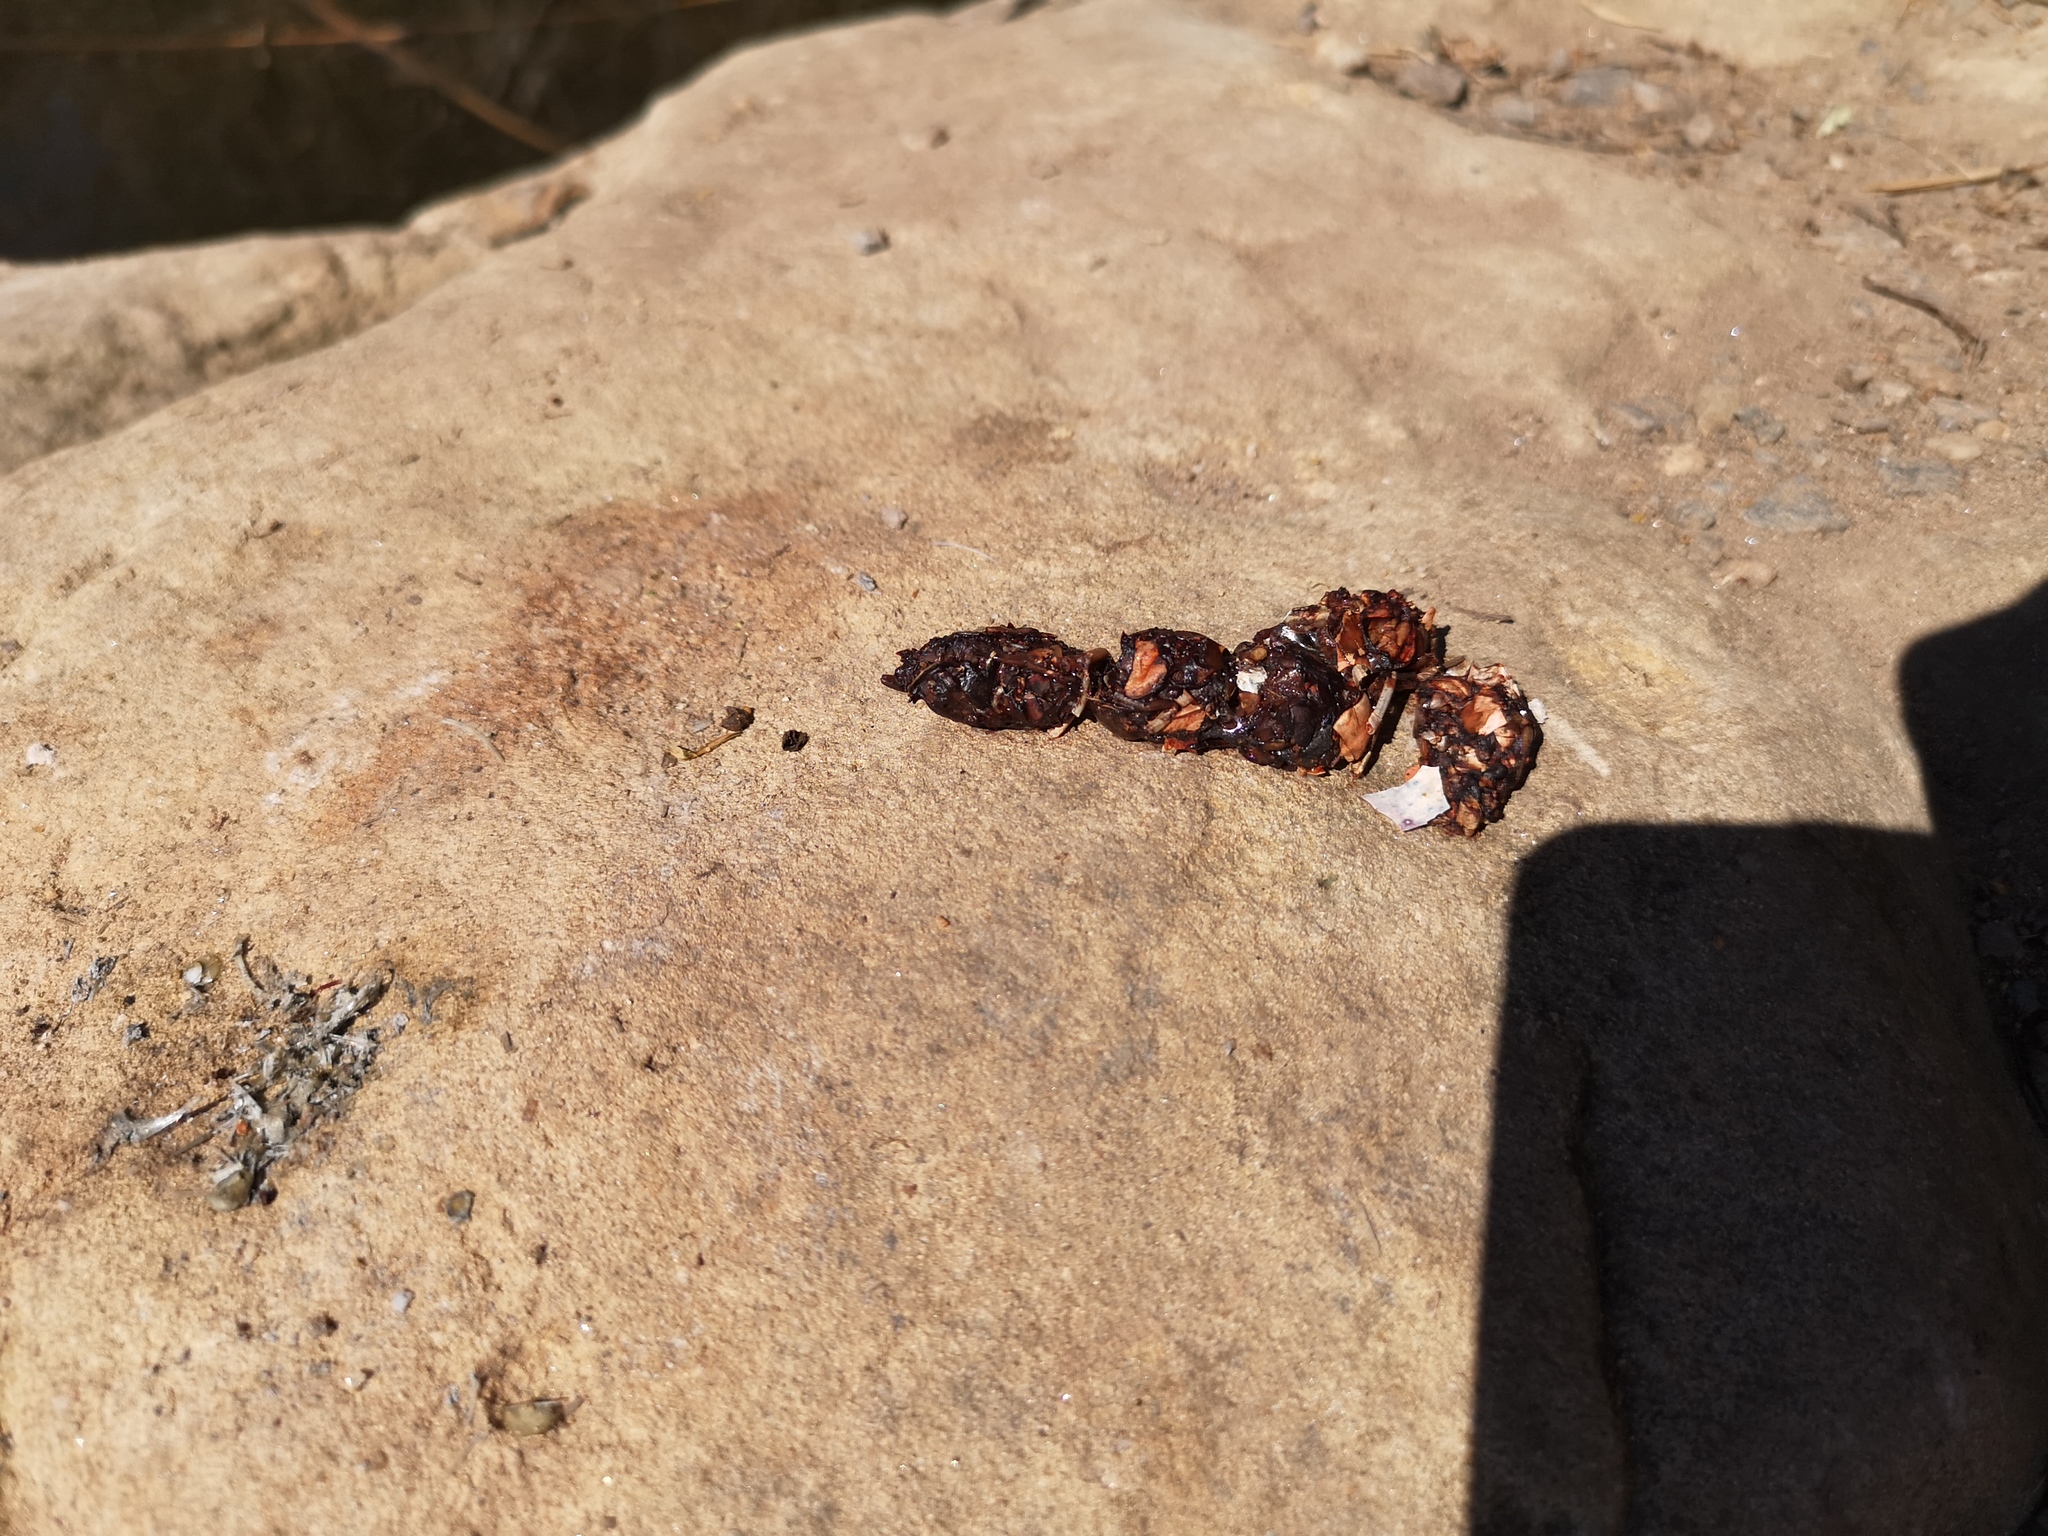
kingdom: Animalia
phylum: Chordata
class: Mammalia
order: Carnivora
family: Mustelidae
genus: Lutra
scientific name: Lutra lutra
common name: European otter
